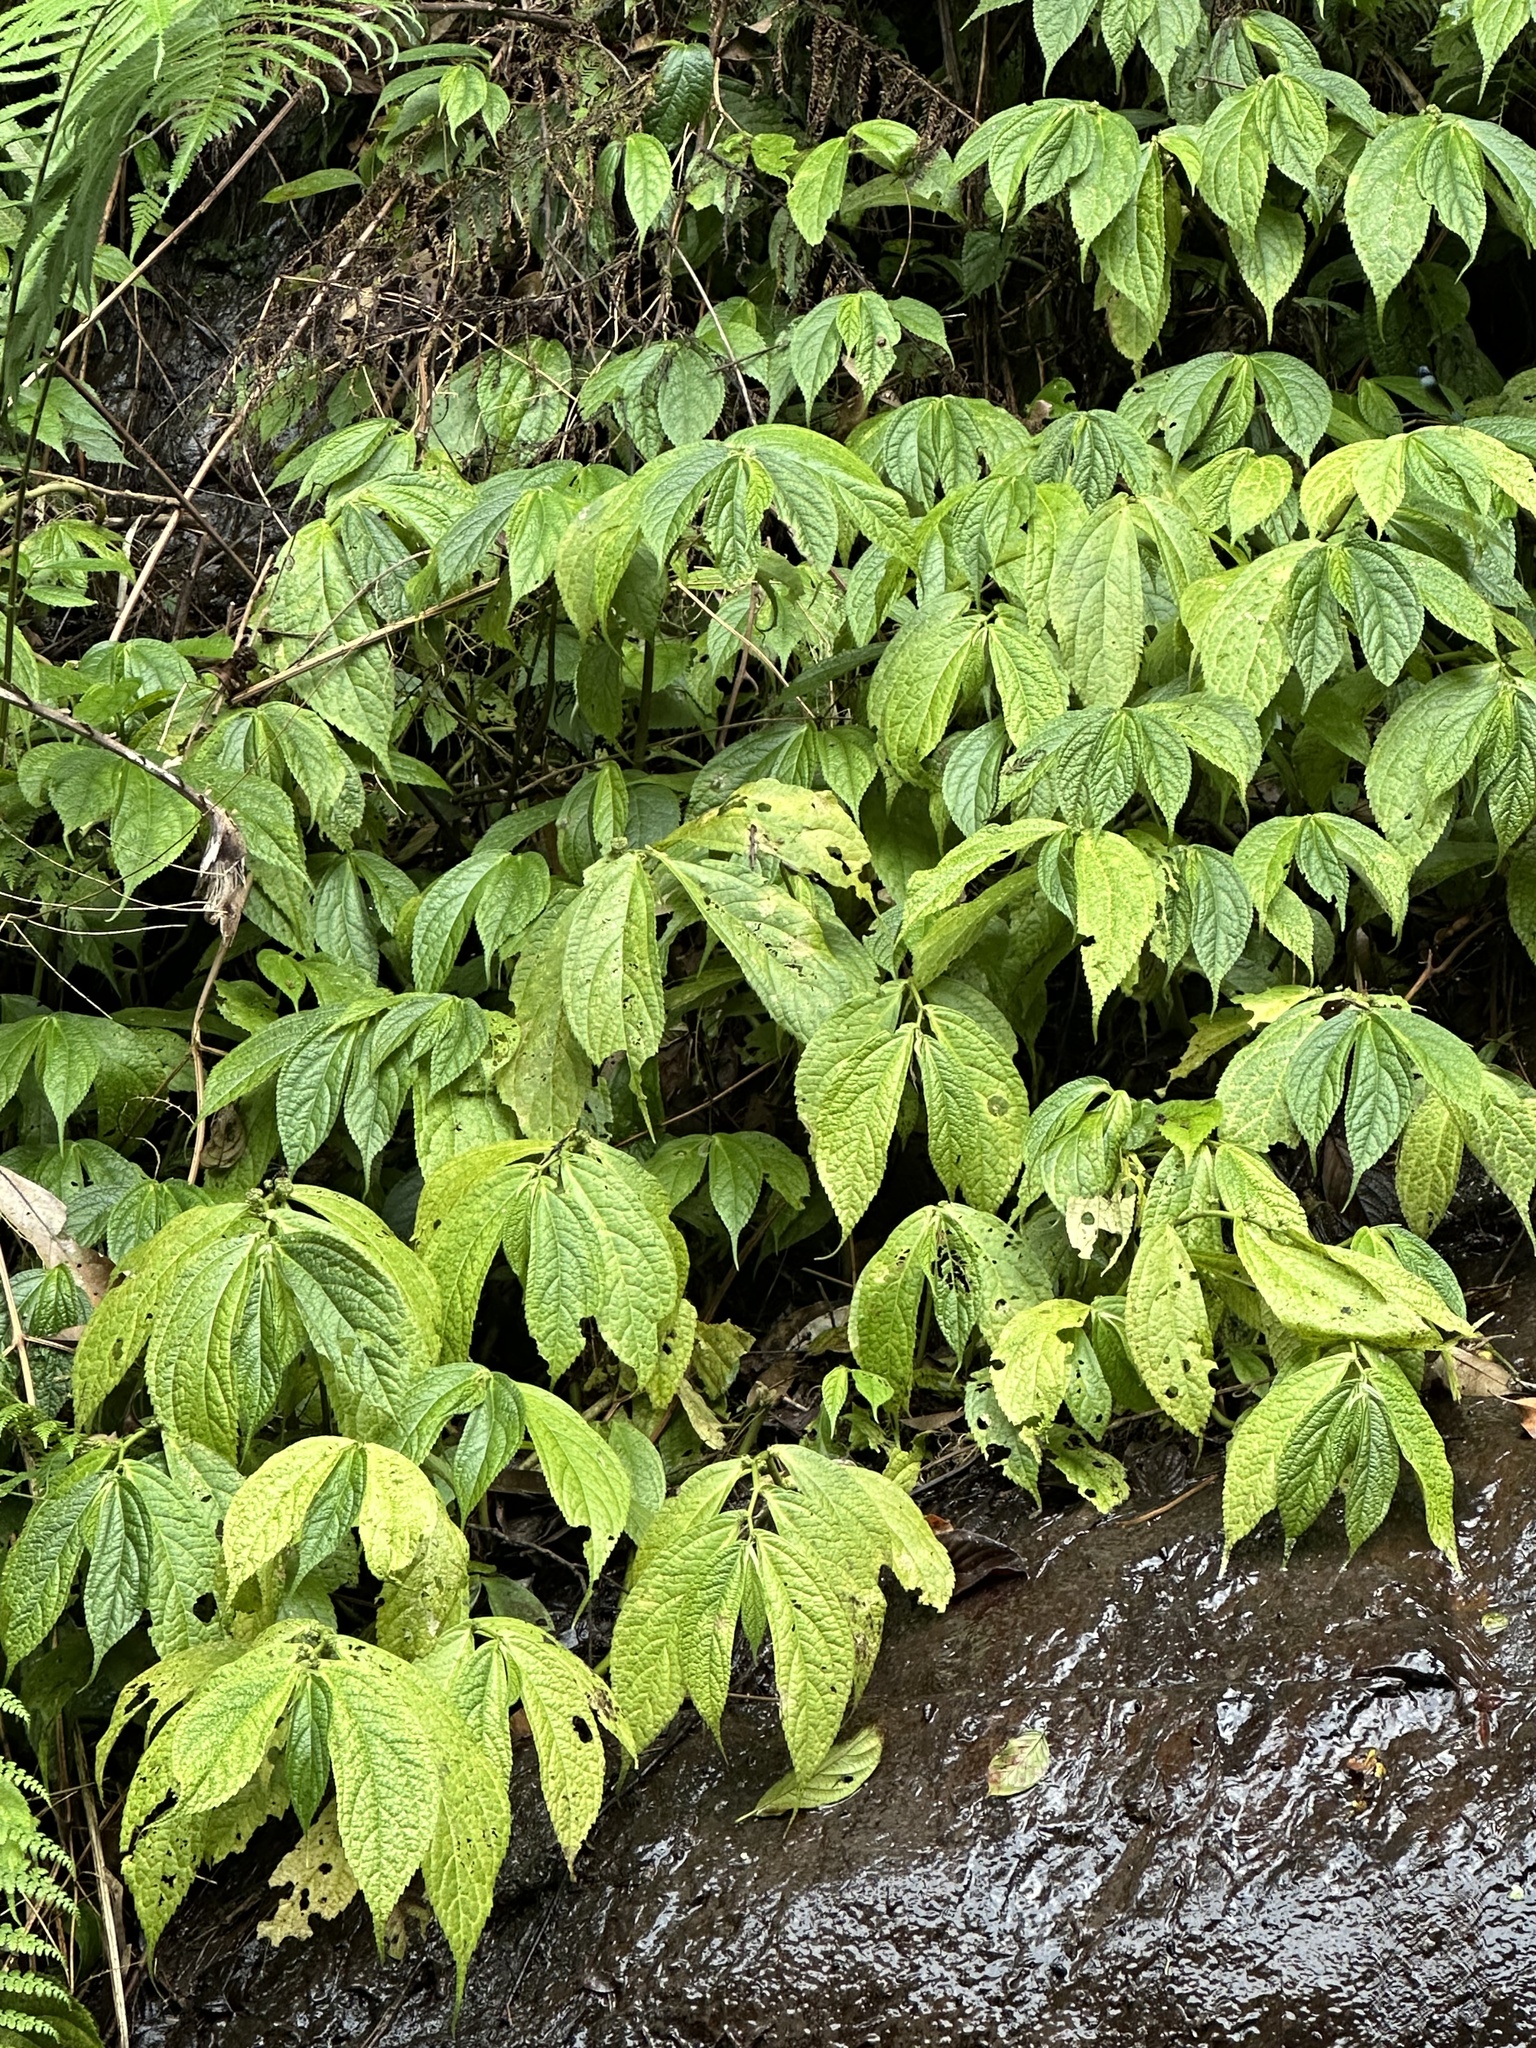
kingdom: Plantae
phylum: Tracheophyta
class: Magnoliopsida
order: Rosales
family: Urticaceae
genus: Elatostema
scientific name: Elatostema platyphyllum
